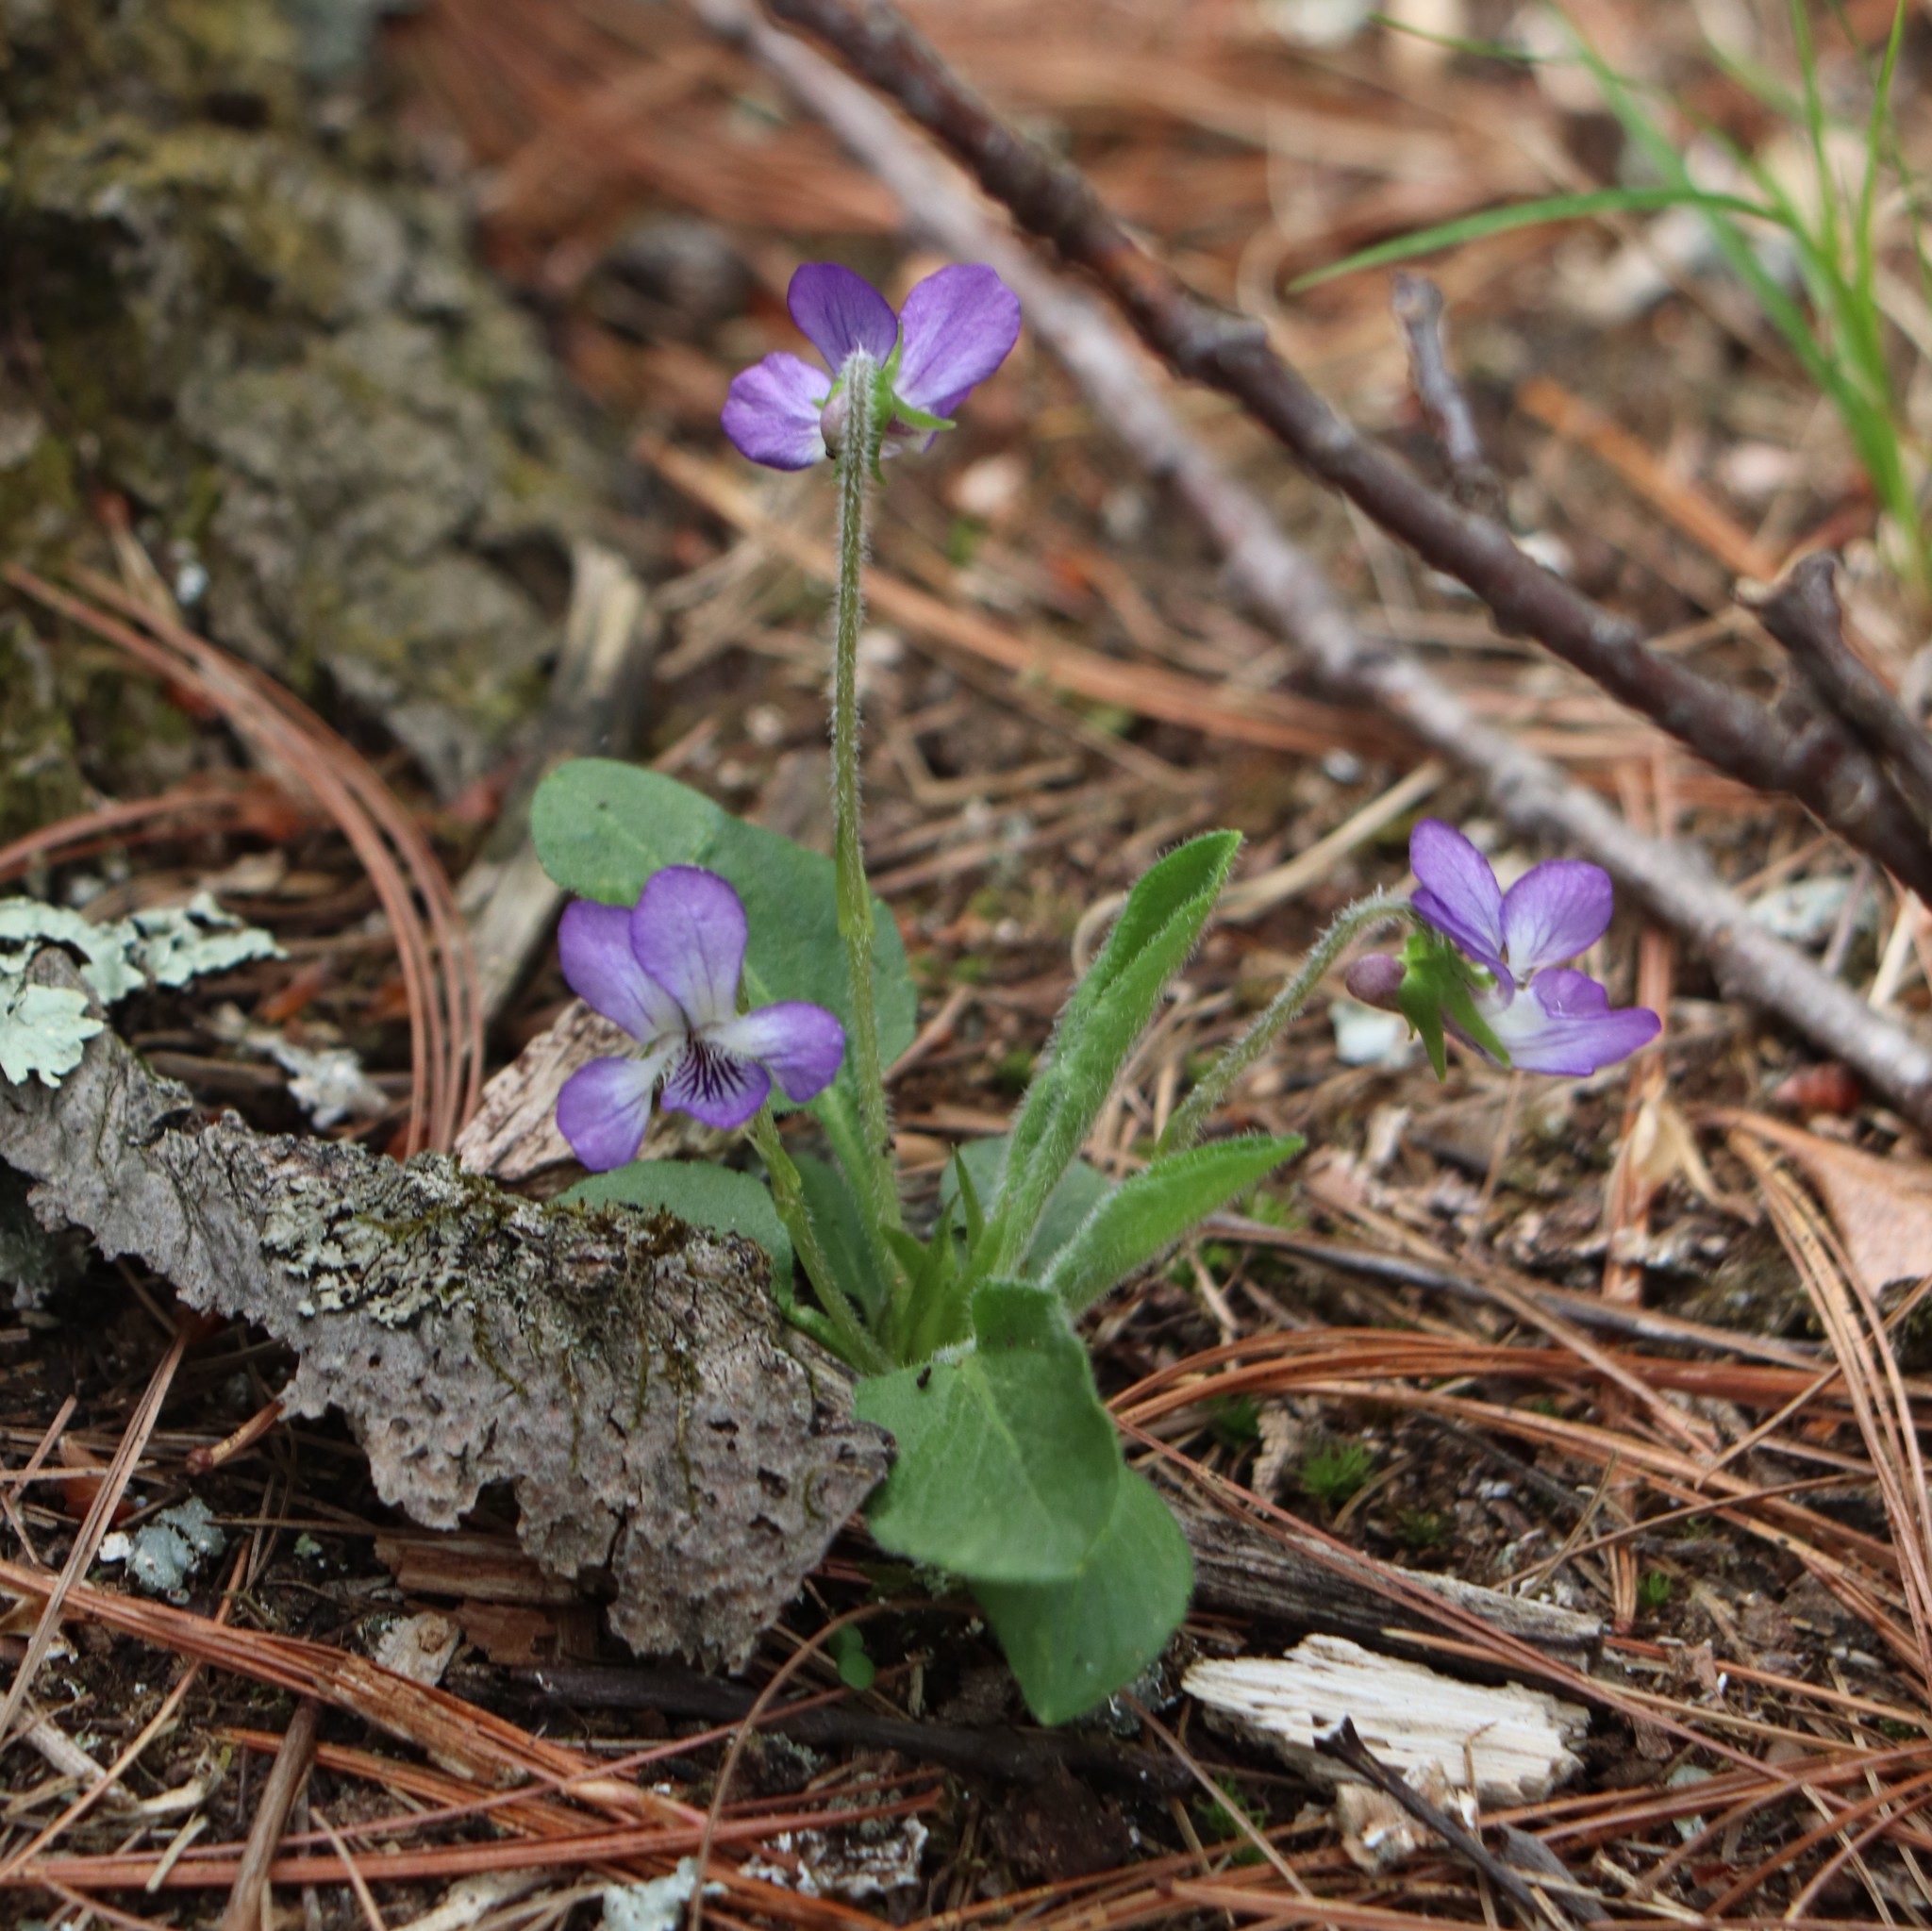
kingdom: Plantae
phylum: Tracheophyta
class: Magnoliopsida
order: Malpighiales
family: Violaceae
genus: Viola
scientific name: Viola fimbriatula
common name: Sand violet
